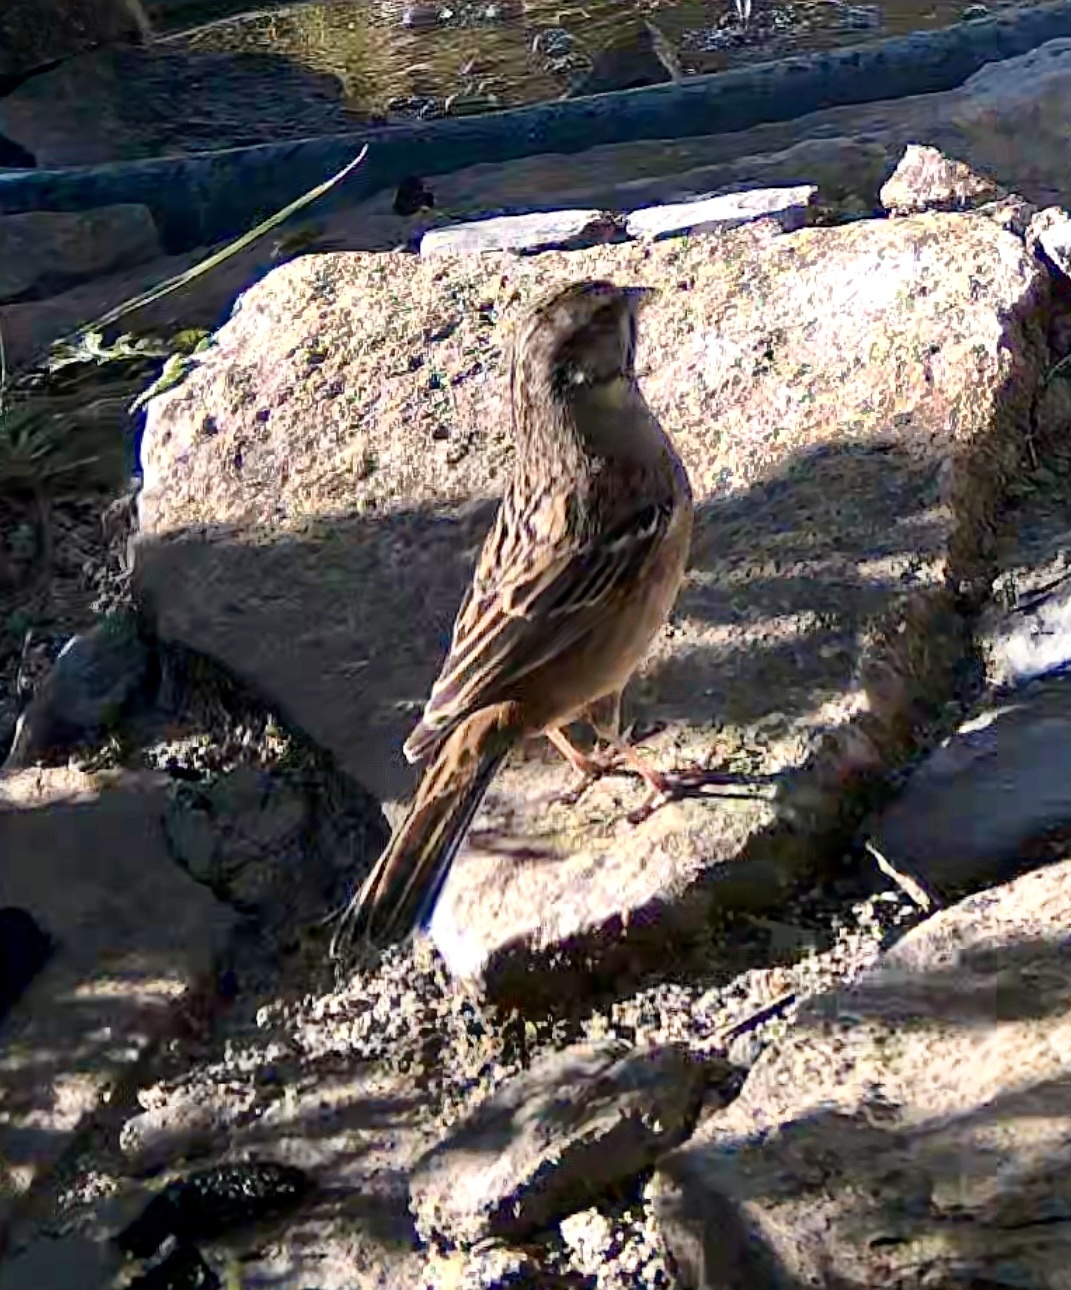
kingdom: Animalia
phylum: Chordata
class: Aves
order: Passeriformes
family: Emberizidae
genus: Emberiza
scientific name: Emberiza cia
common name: Rock bunting
